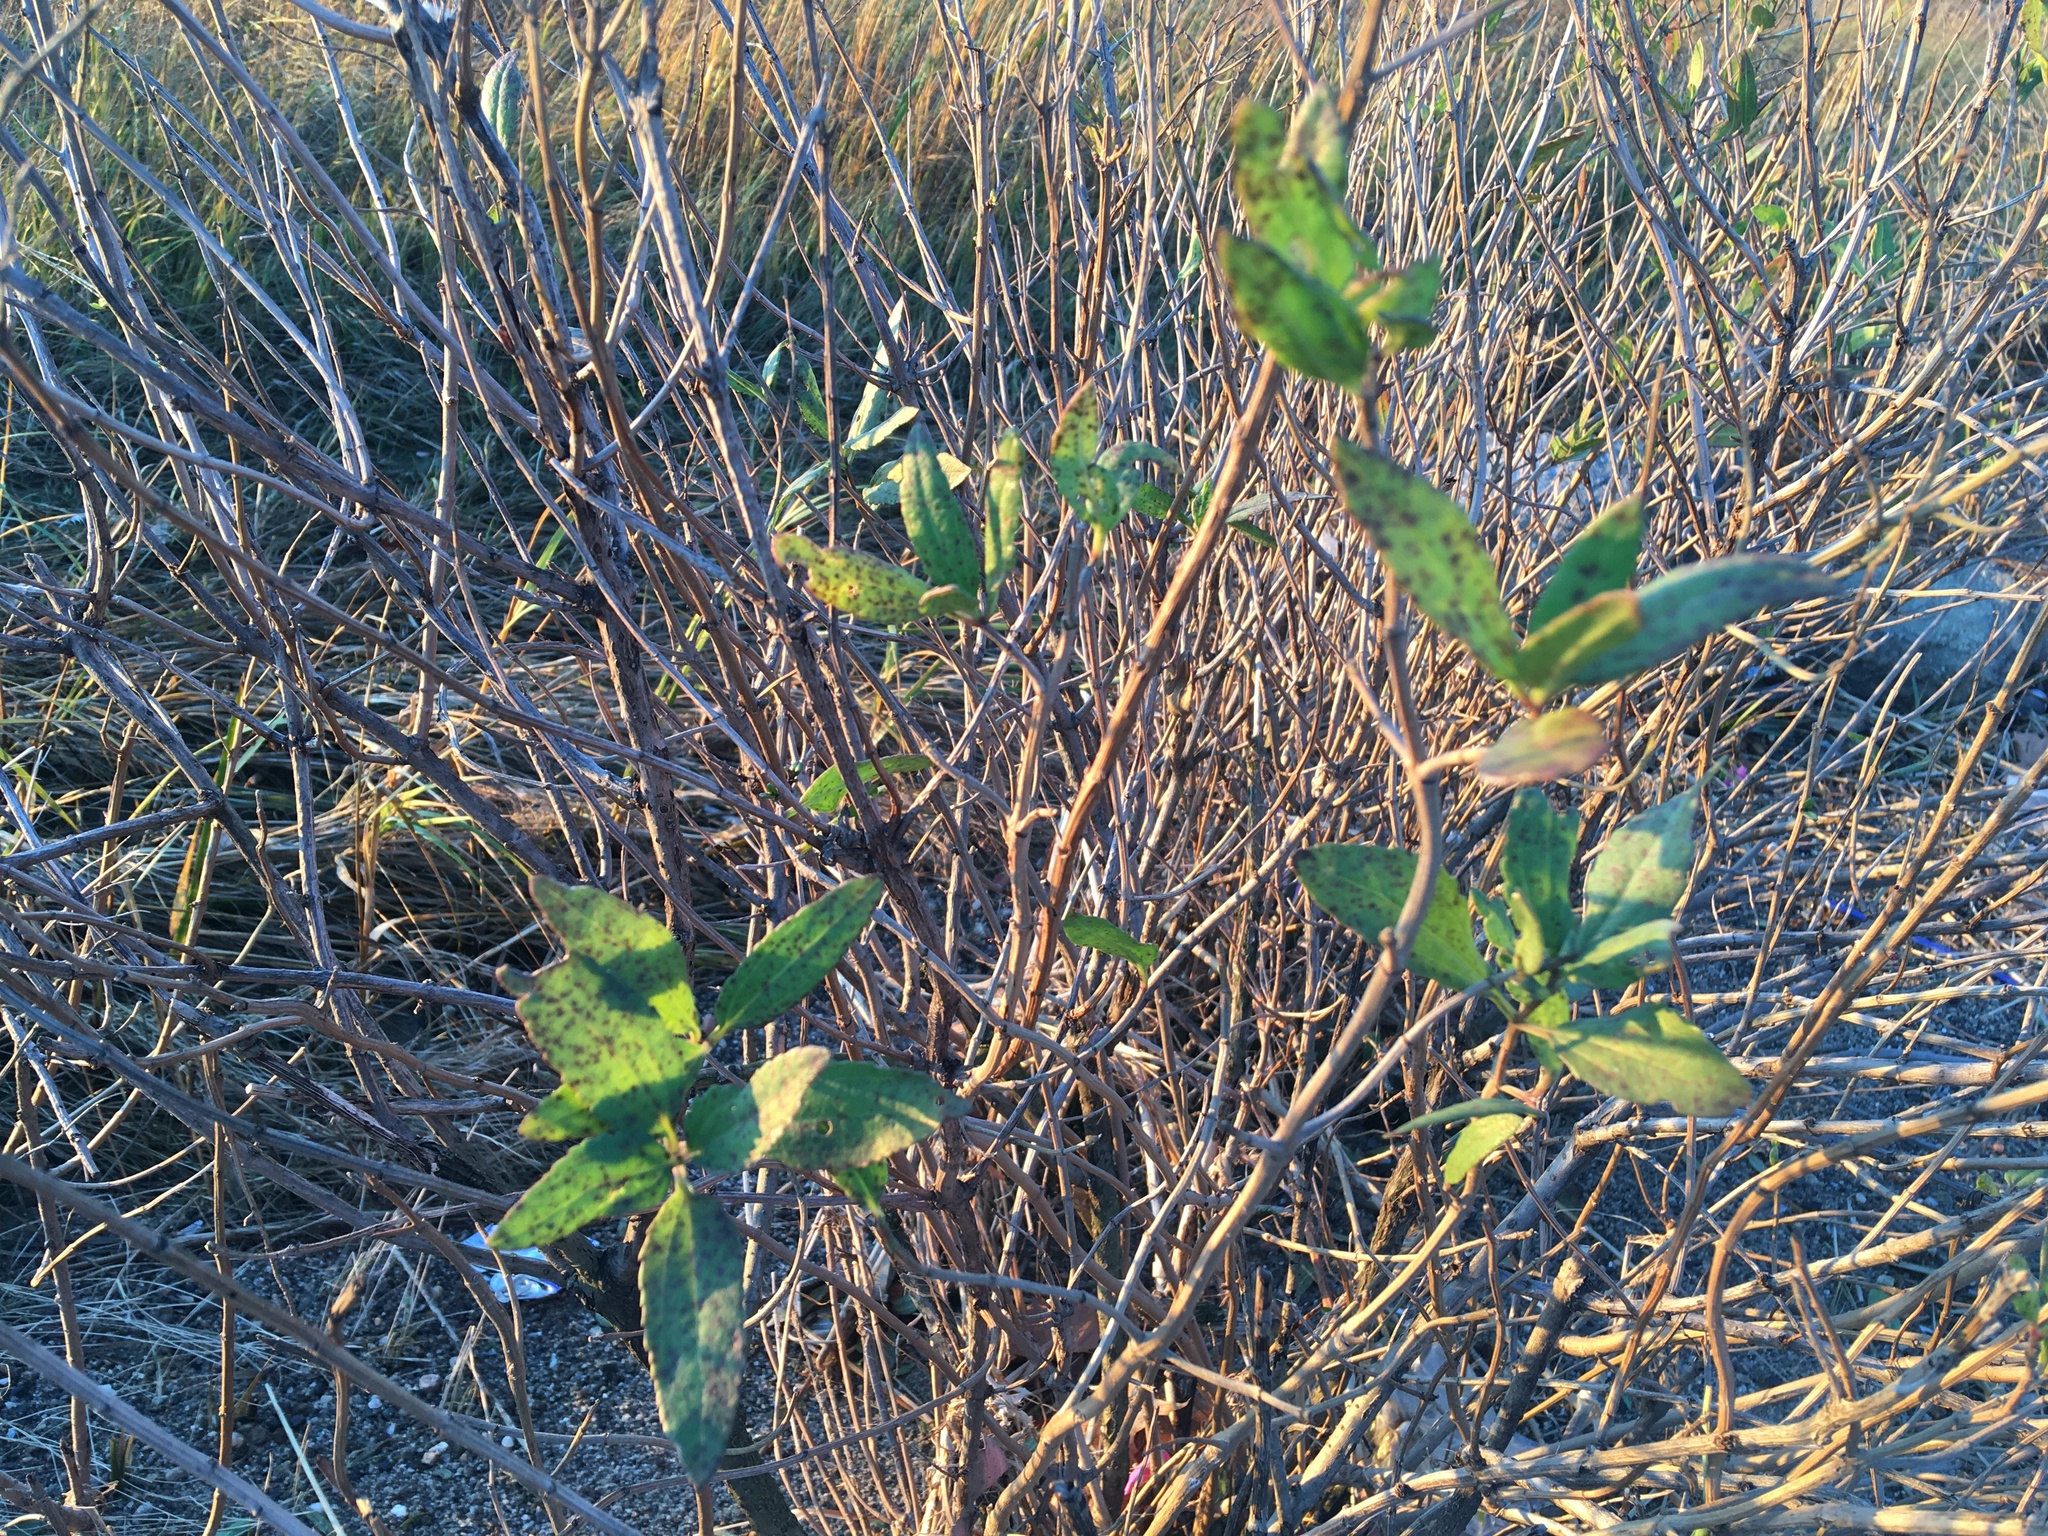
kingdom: Plantae
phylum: Tracheophyta
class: Magnoliopsida
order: Asterales
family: Asteraceae
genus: Iva
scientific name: Iva frutescens
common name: Big-leaved marsh-elder
